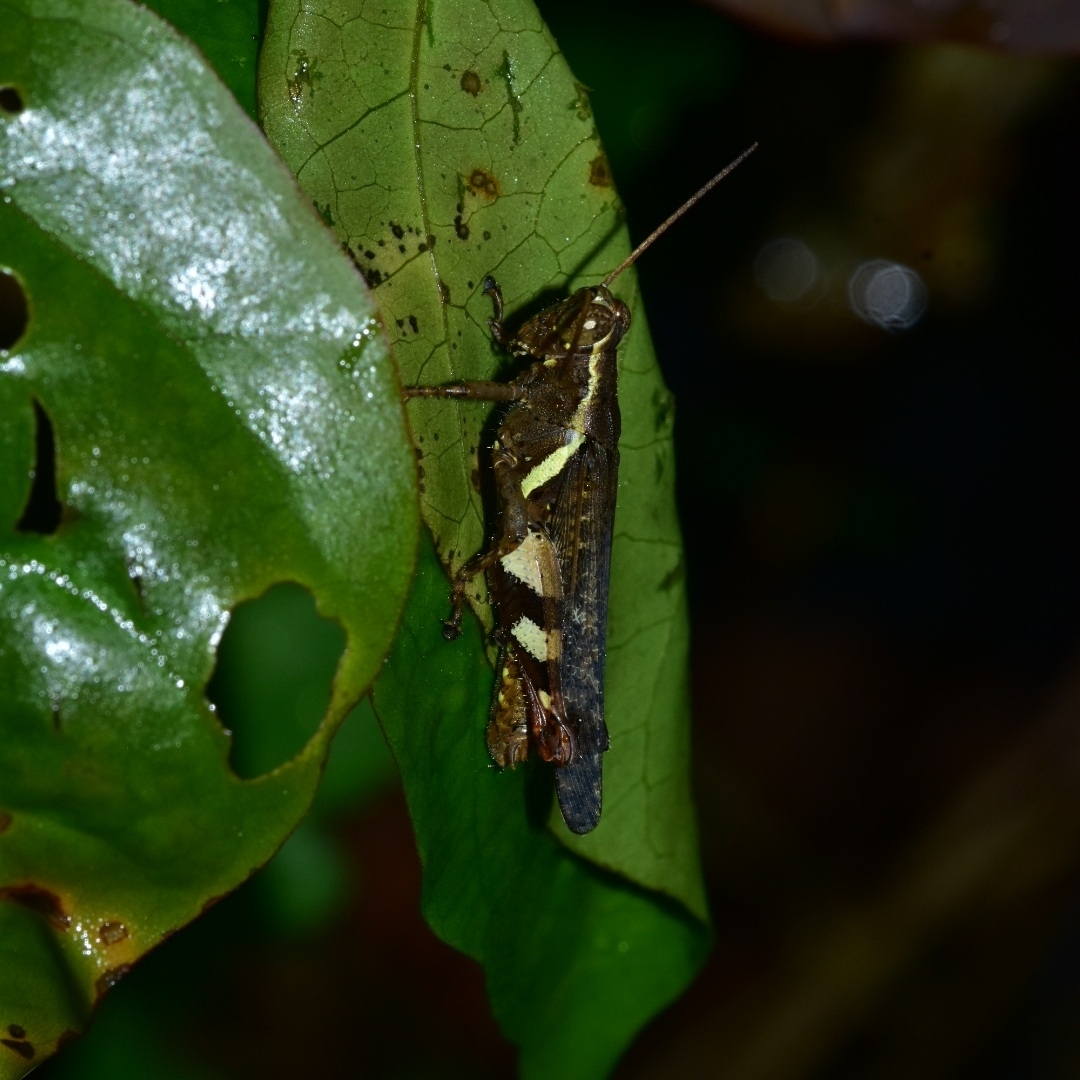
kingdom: Animalia
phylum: Arthropoda
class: Insecta
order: Orthoptera
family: Acrididae
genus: Xenocatantops
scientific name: Xenocatantops humile
